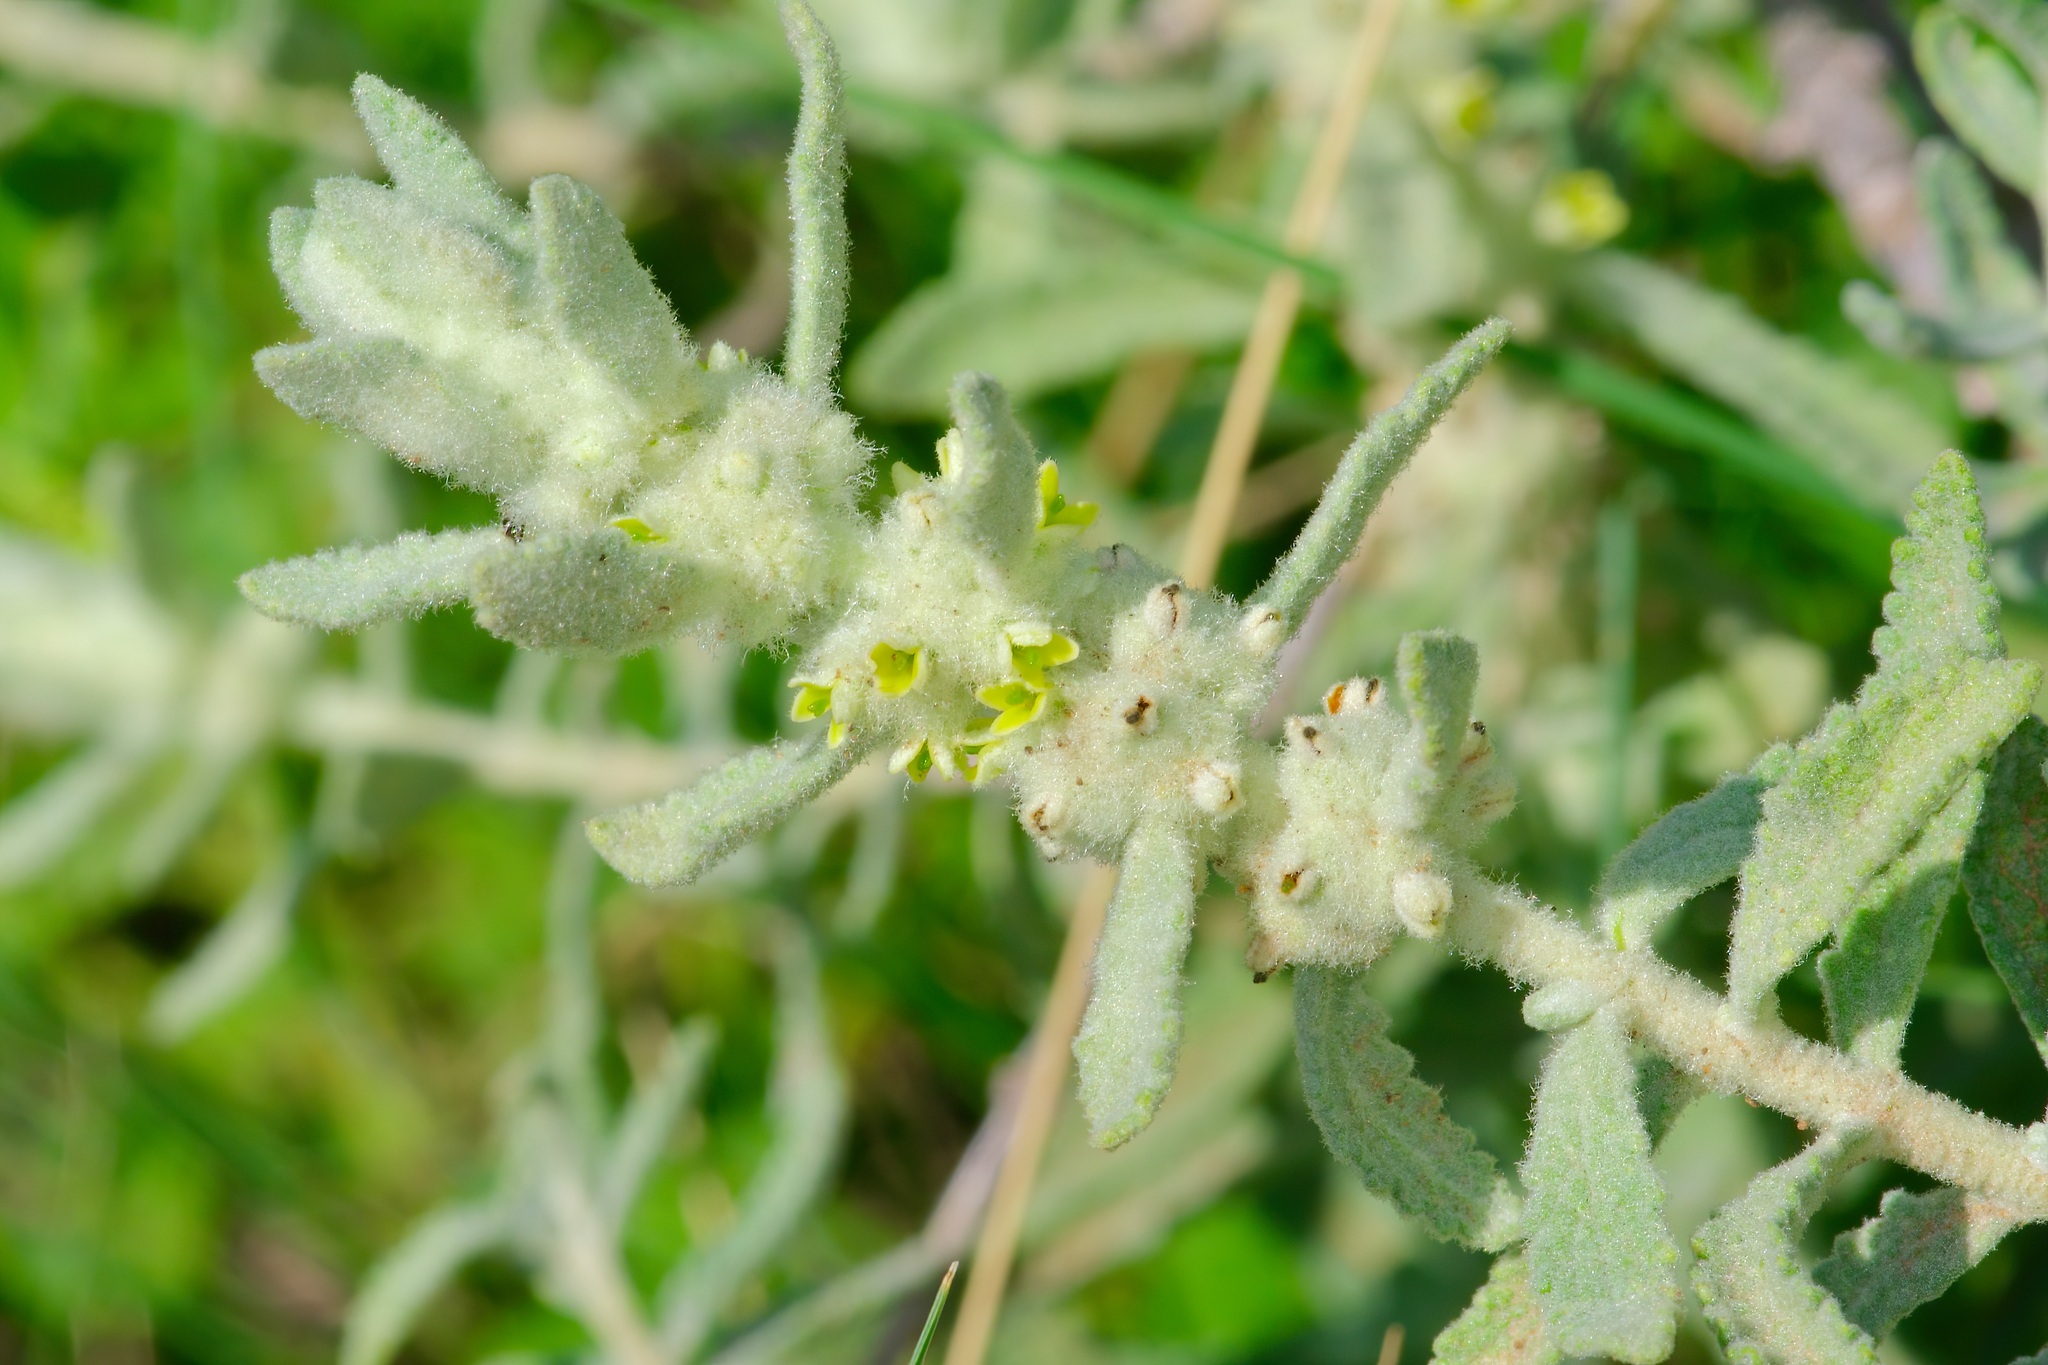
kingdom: Plantae
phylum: Tracheophyta
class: Magnoliopsida
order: Lamiales
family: Scrophulariaceae
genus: Buddleja
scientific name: Buddleja scordioides
